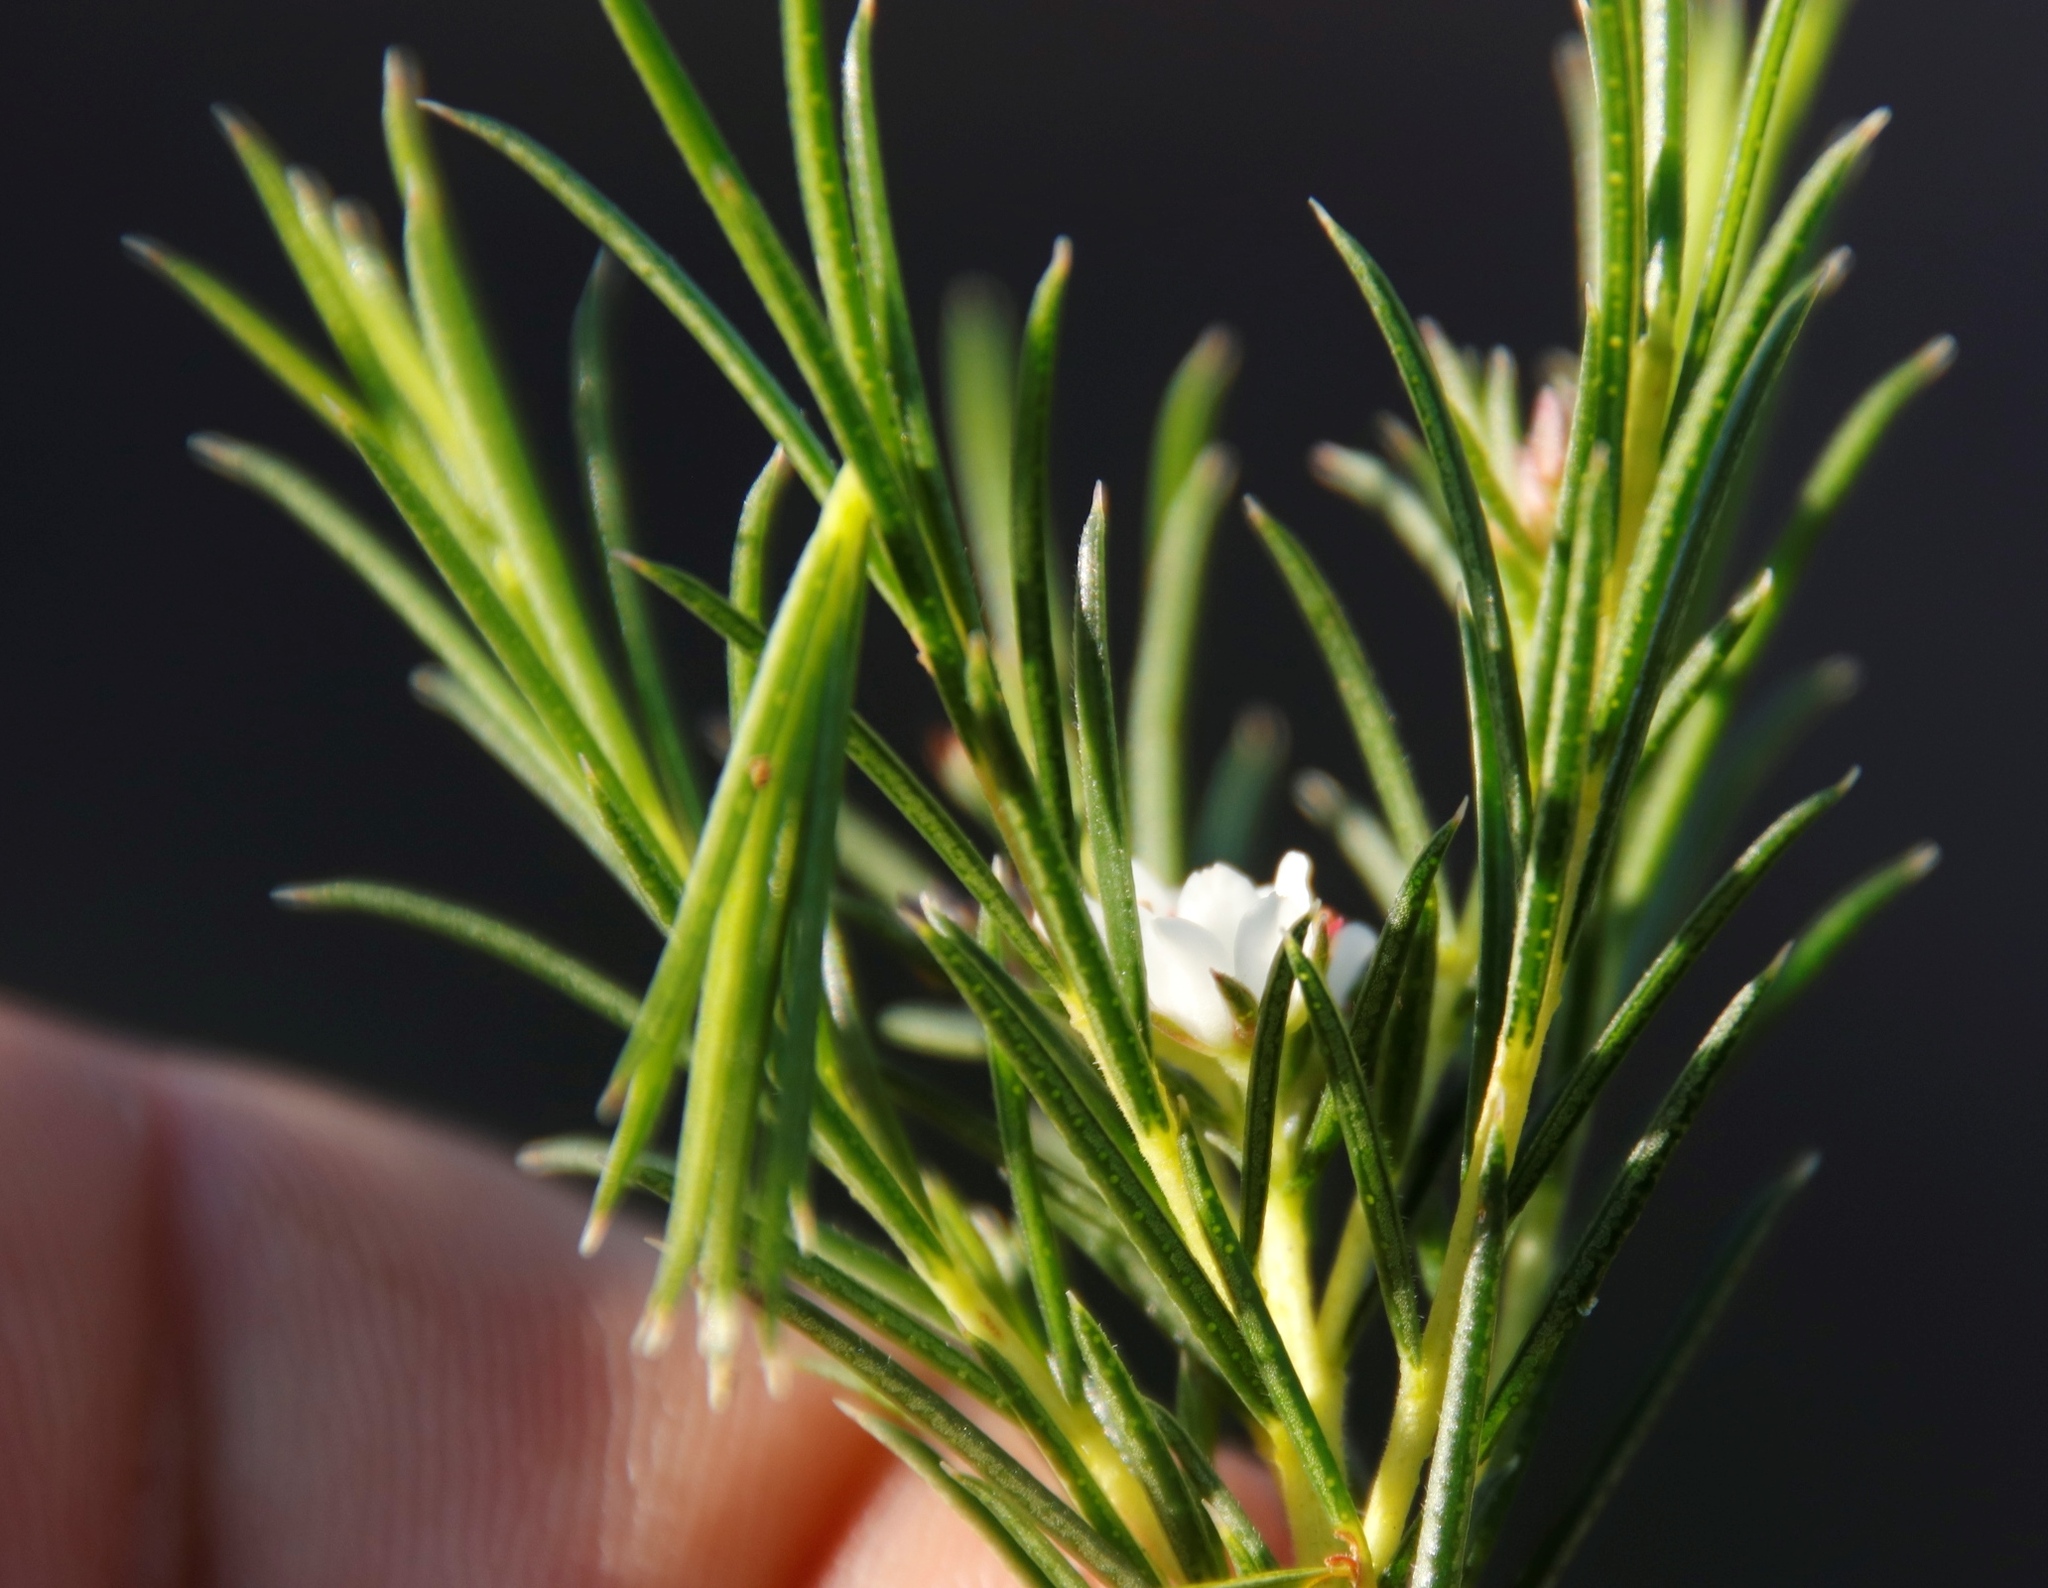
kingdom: Plantae
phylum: Tracheophyta
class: Magnoliopsida
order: Sapindales
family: Rutaceae
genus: Diosma
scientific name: Diosma hirsuta
